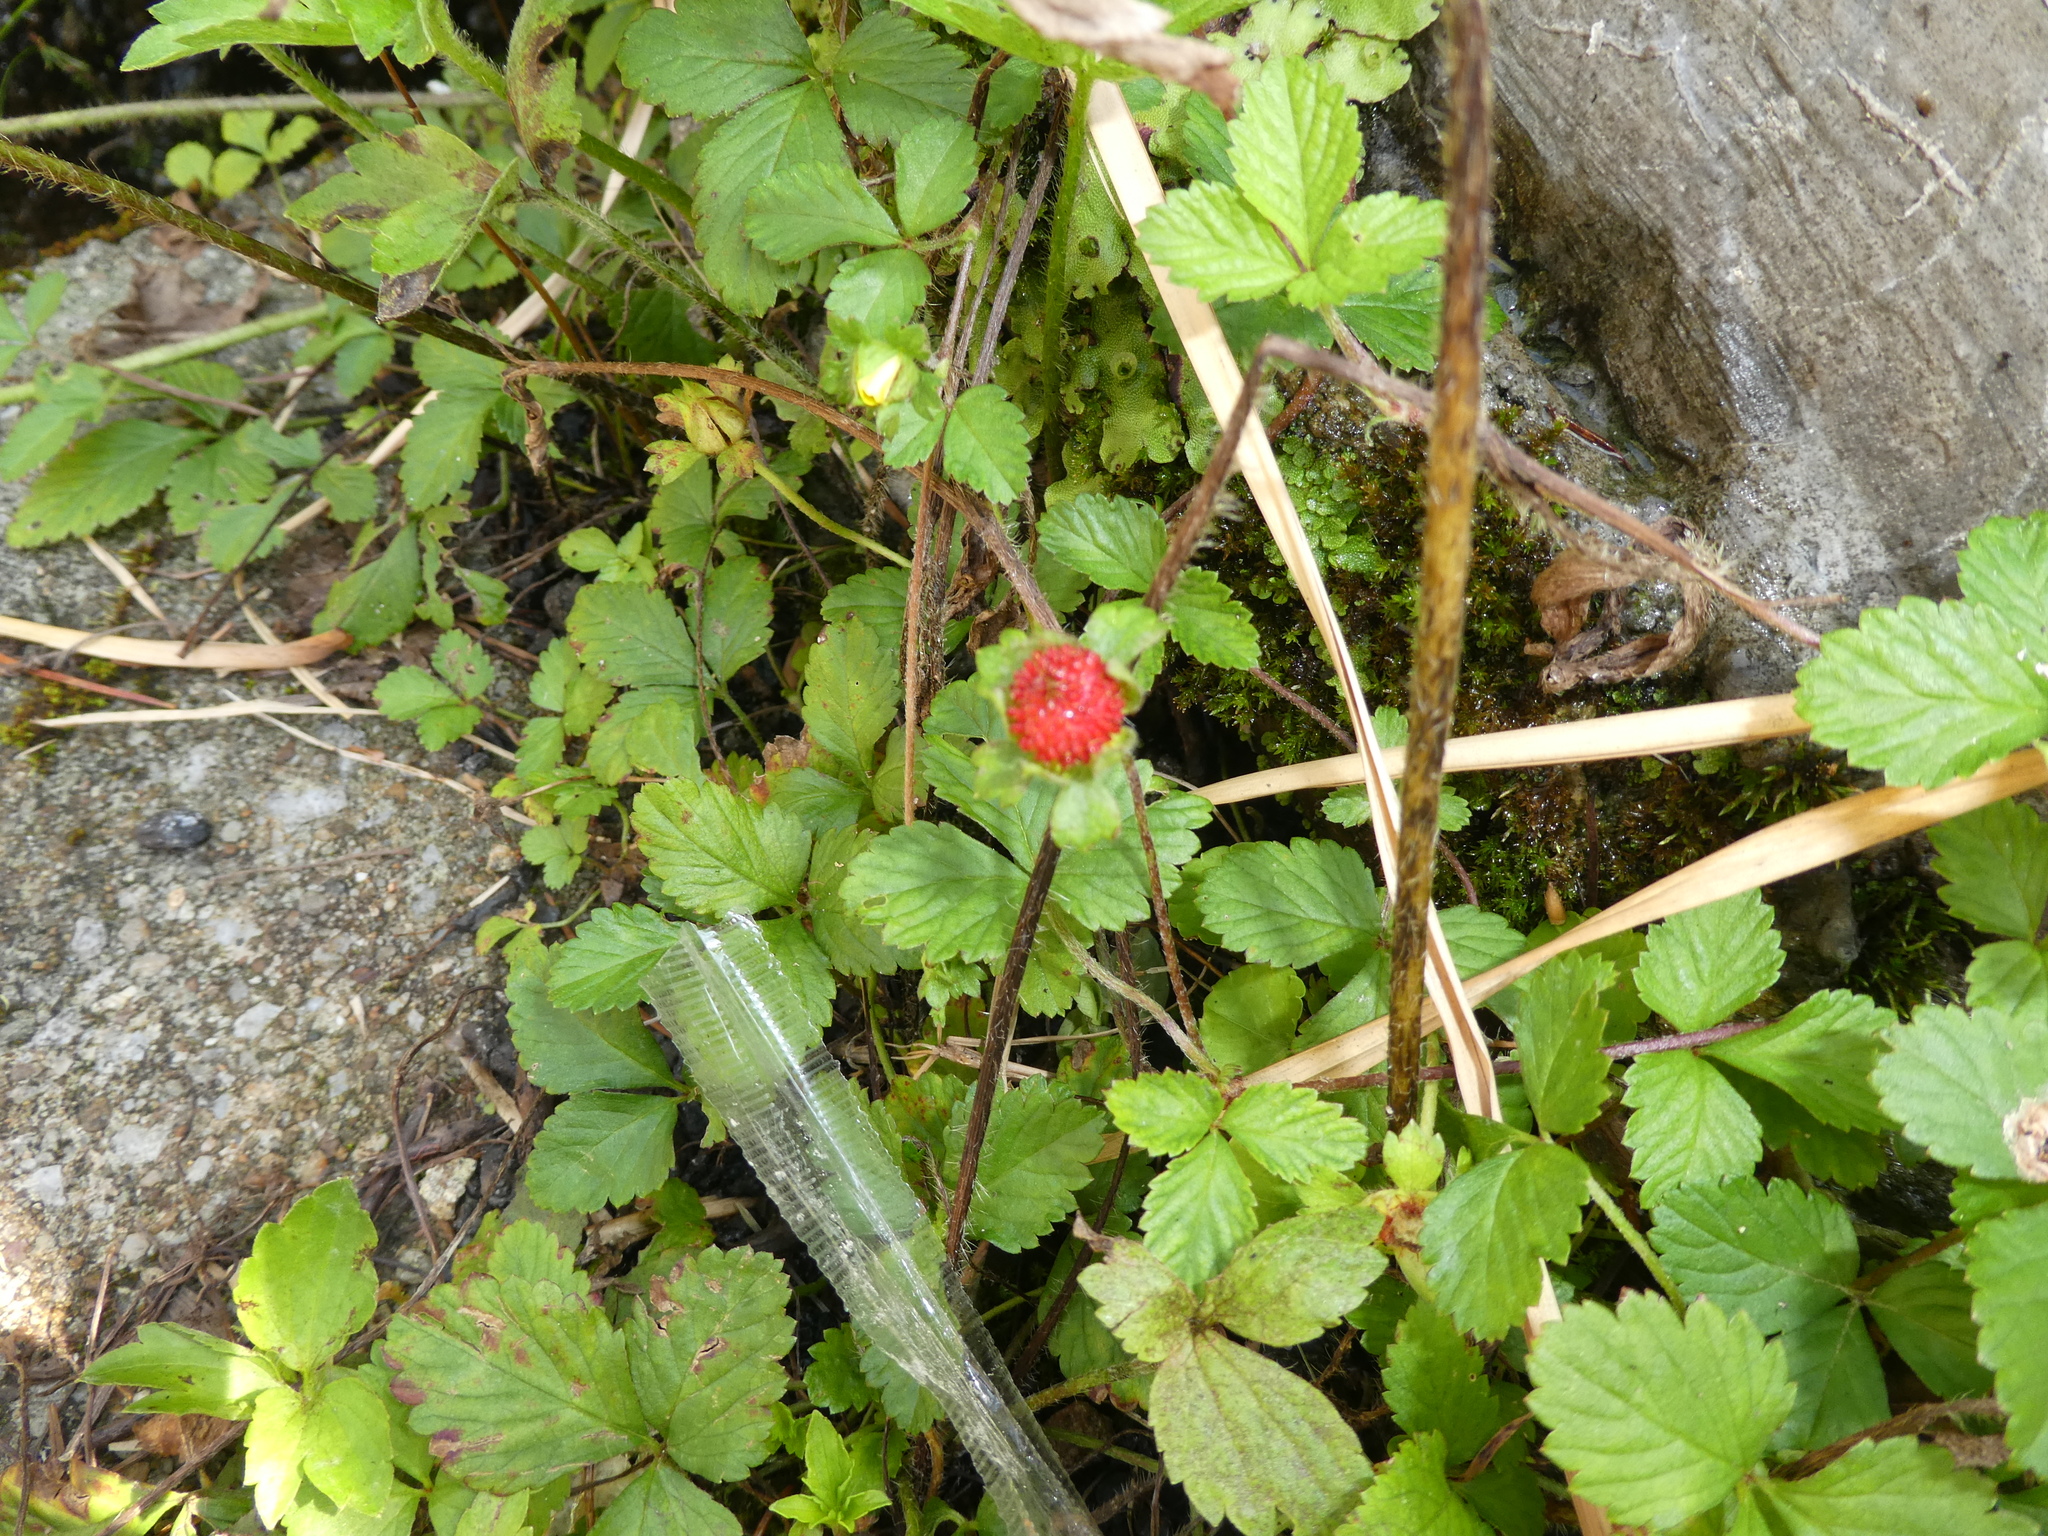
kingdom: Plantae
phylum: Tracheophyta
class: Magnoliopsida
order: Rosales
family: Rosaceae
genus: Potentilla
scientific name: Potentilla indica
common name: Yellow-flowered strawberry
